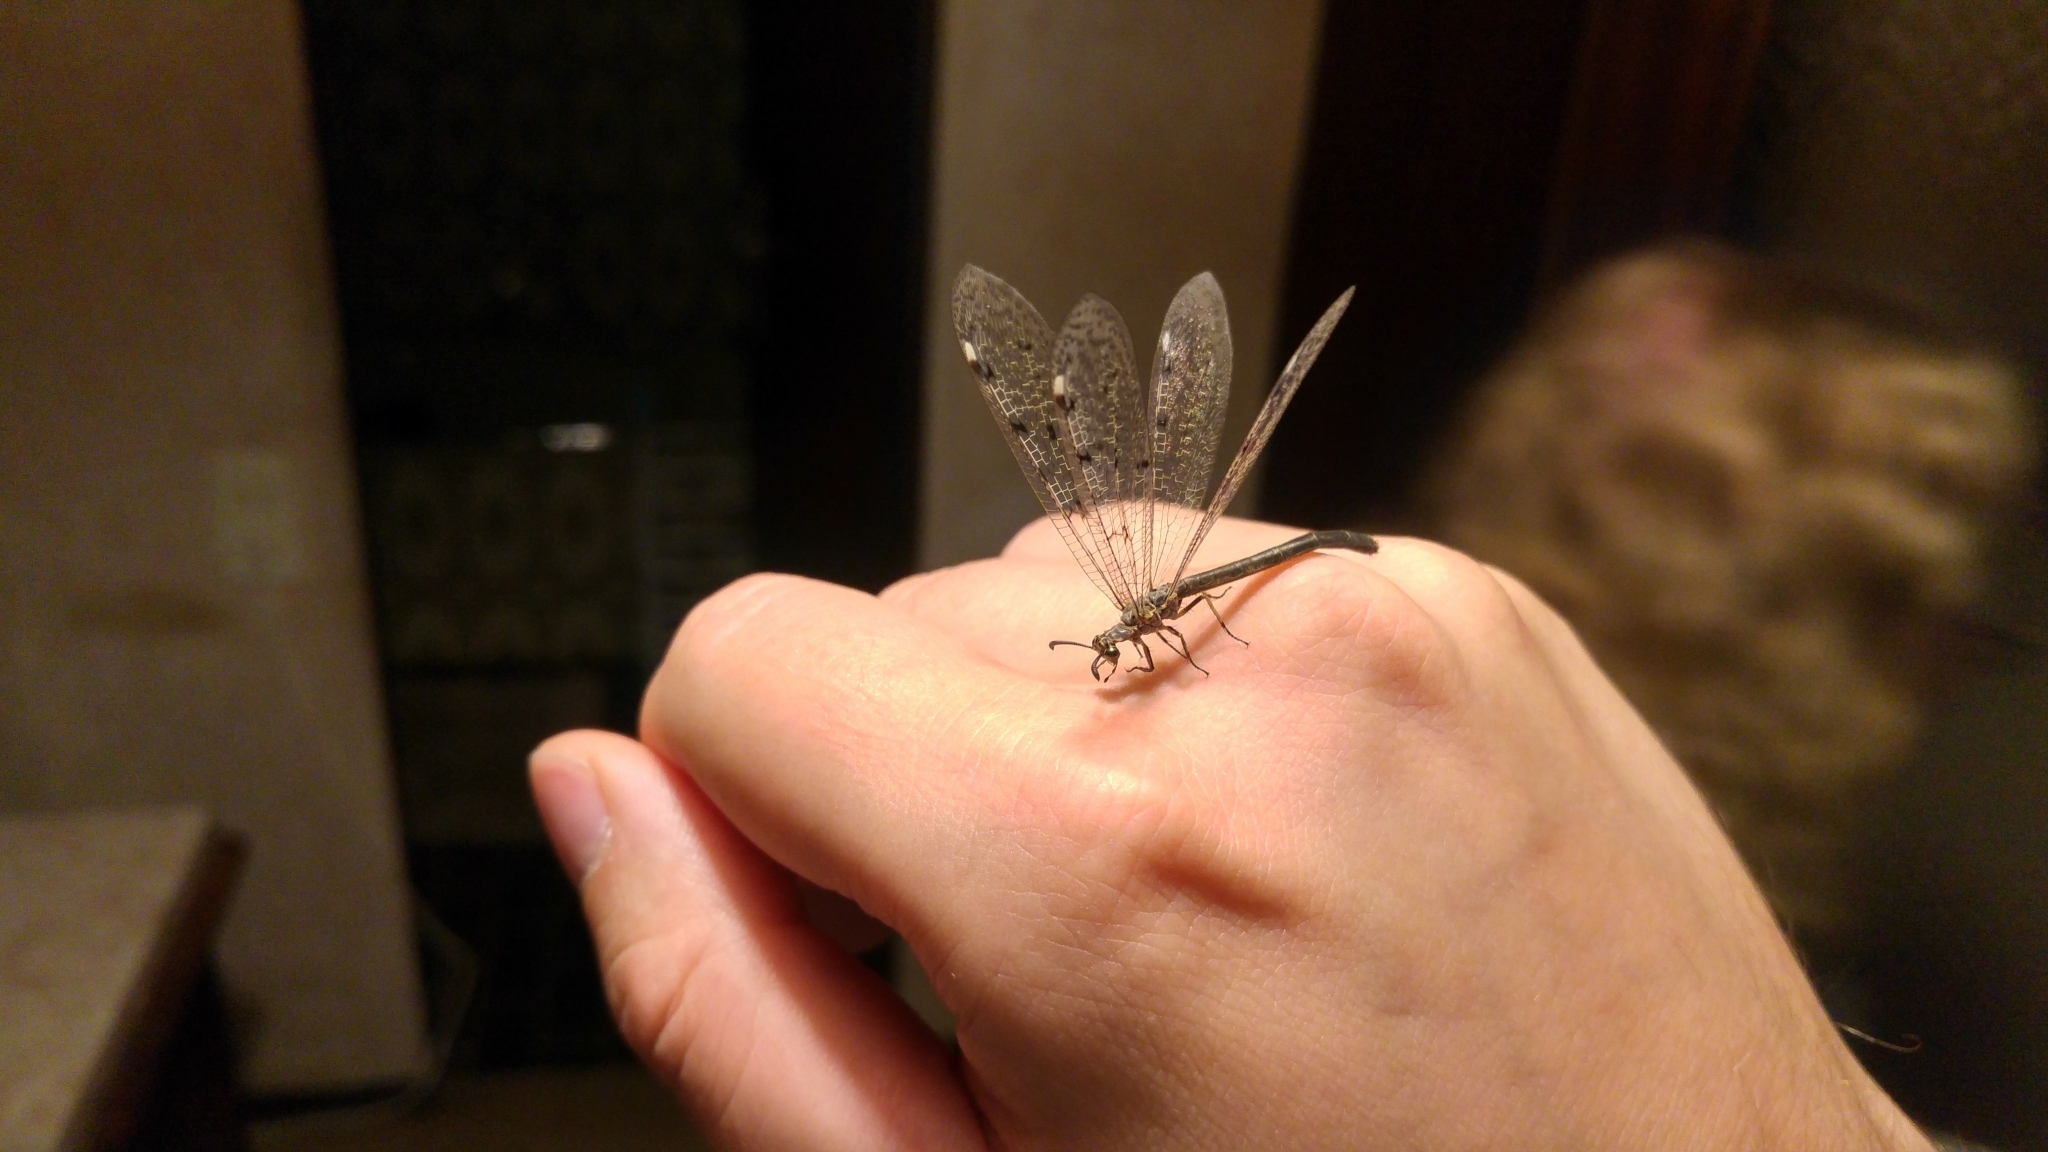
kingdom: Animalia
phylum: Arthropoda
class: Insecta
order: Neuroptera
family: Myrmeleontidae
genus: Euroleon
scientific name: Euroleon nostras
